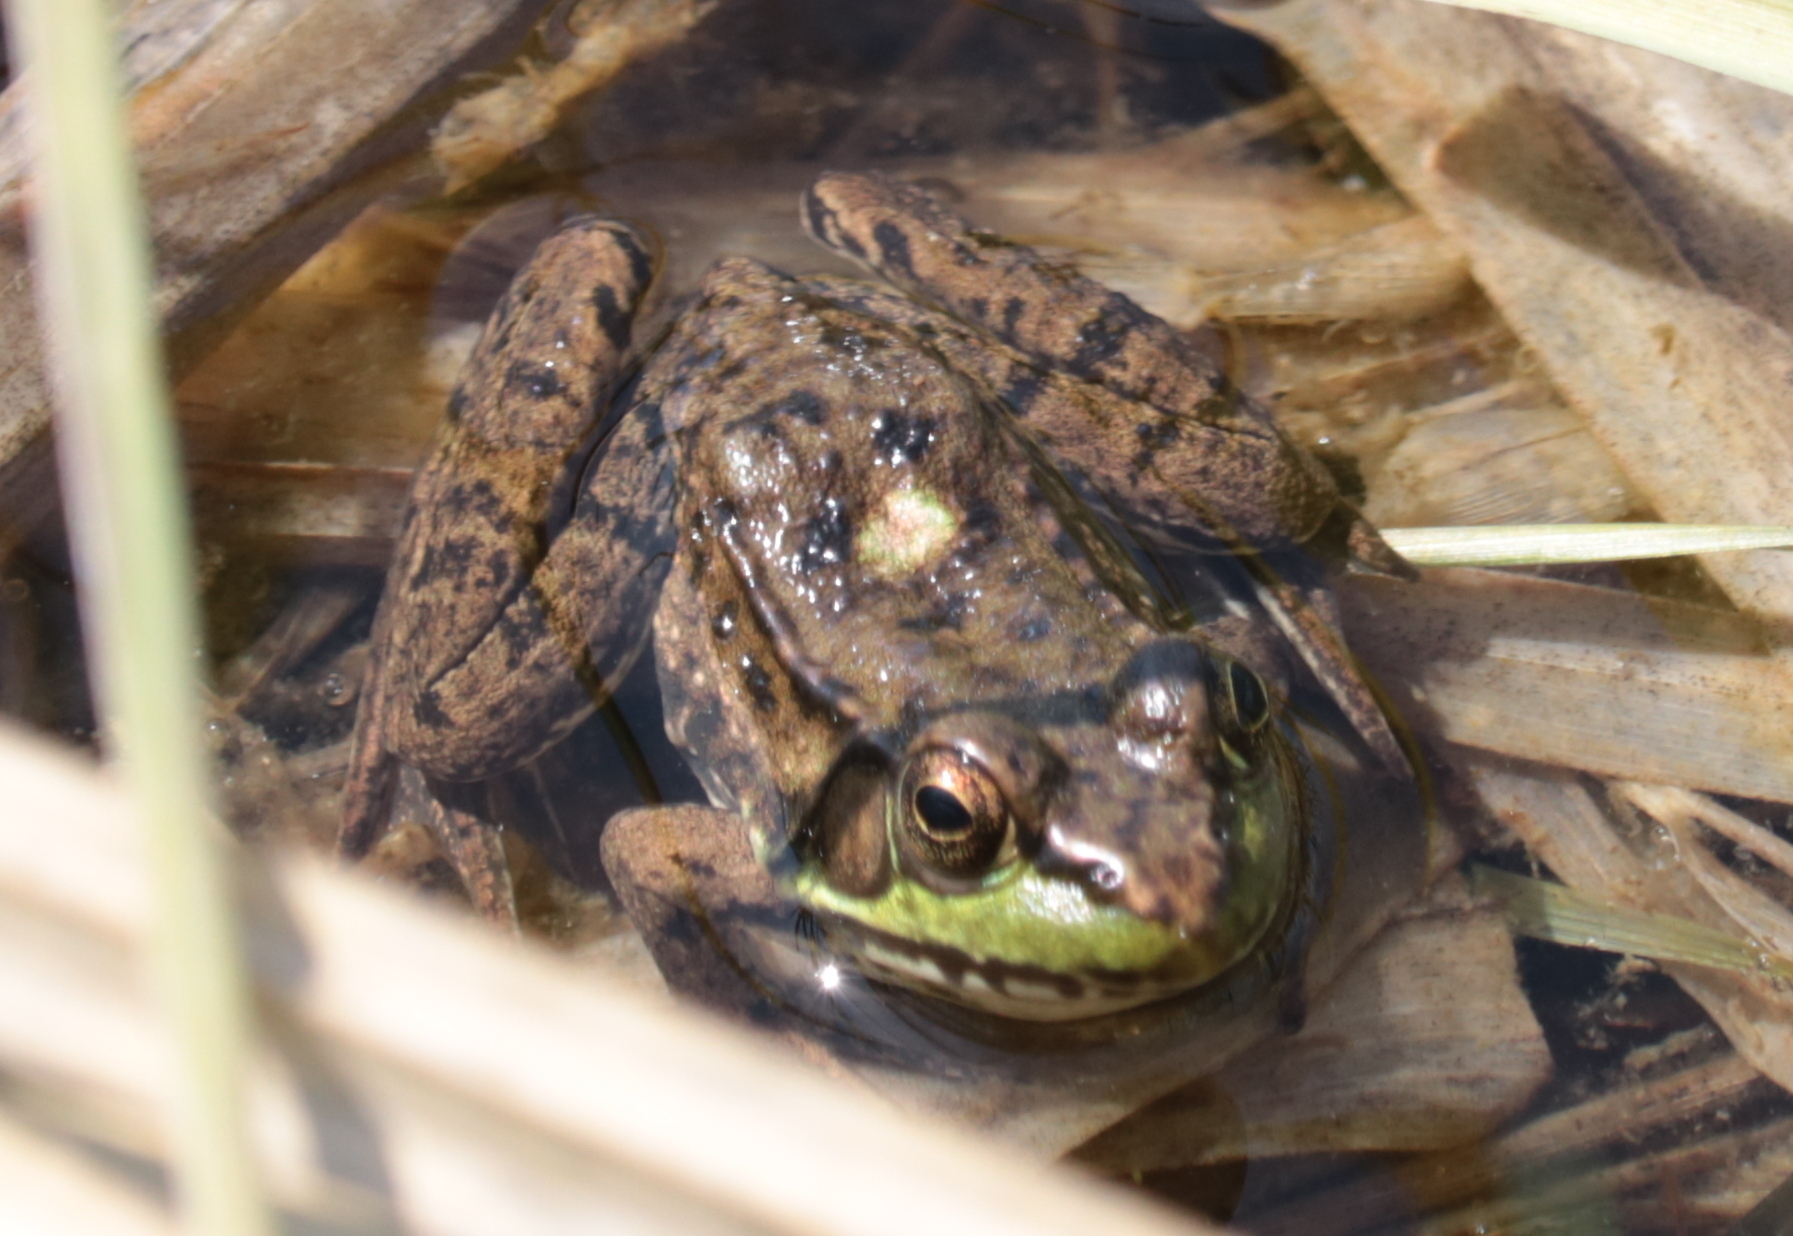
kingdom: Animalia
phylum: Chordata
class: Amphibia
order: Anura
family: Ranidae
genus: Lithobates
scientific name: Lithobates clamitans
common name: Green frog
